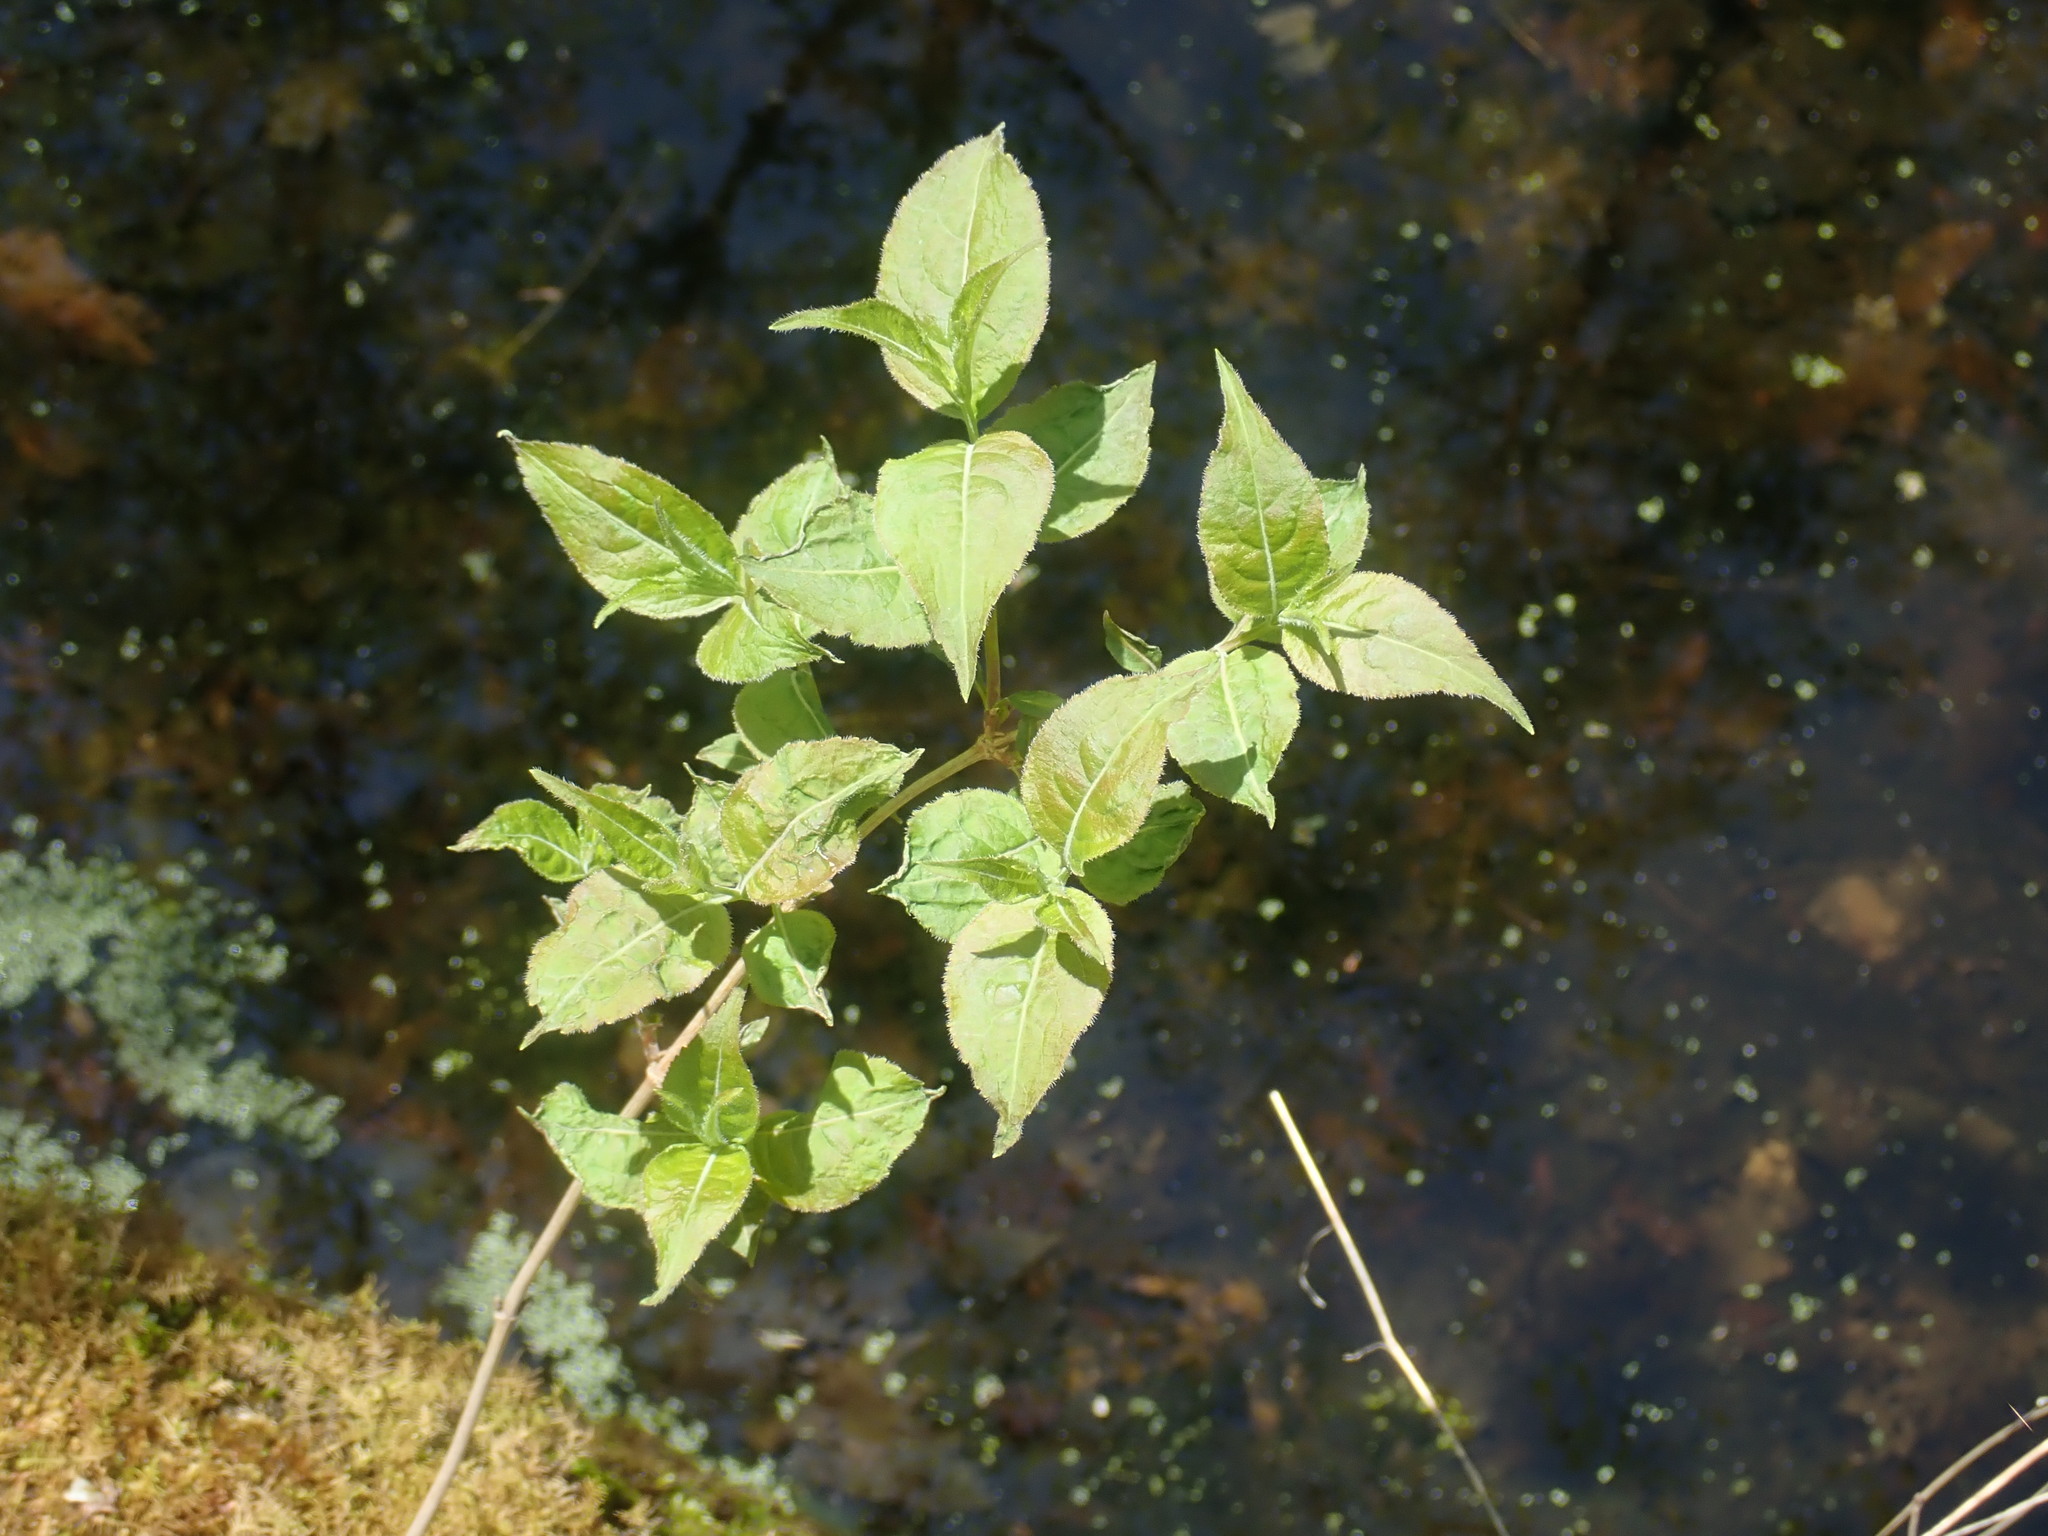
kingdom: Plantae
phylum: Tracheophyta
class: Magnoliopsida
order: Dipsacales
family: Caprifoliaceae
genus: Diervilla
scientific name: Diervilla lonicera
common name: Bush-honeysuckle
